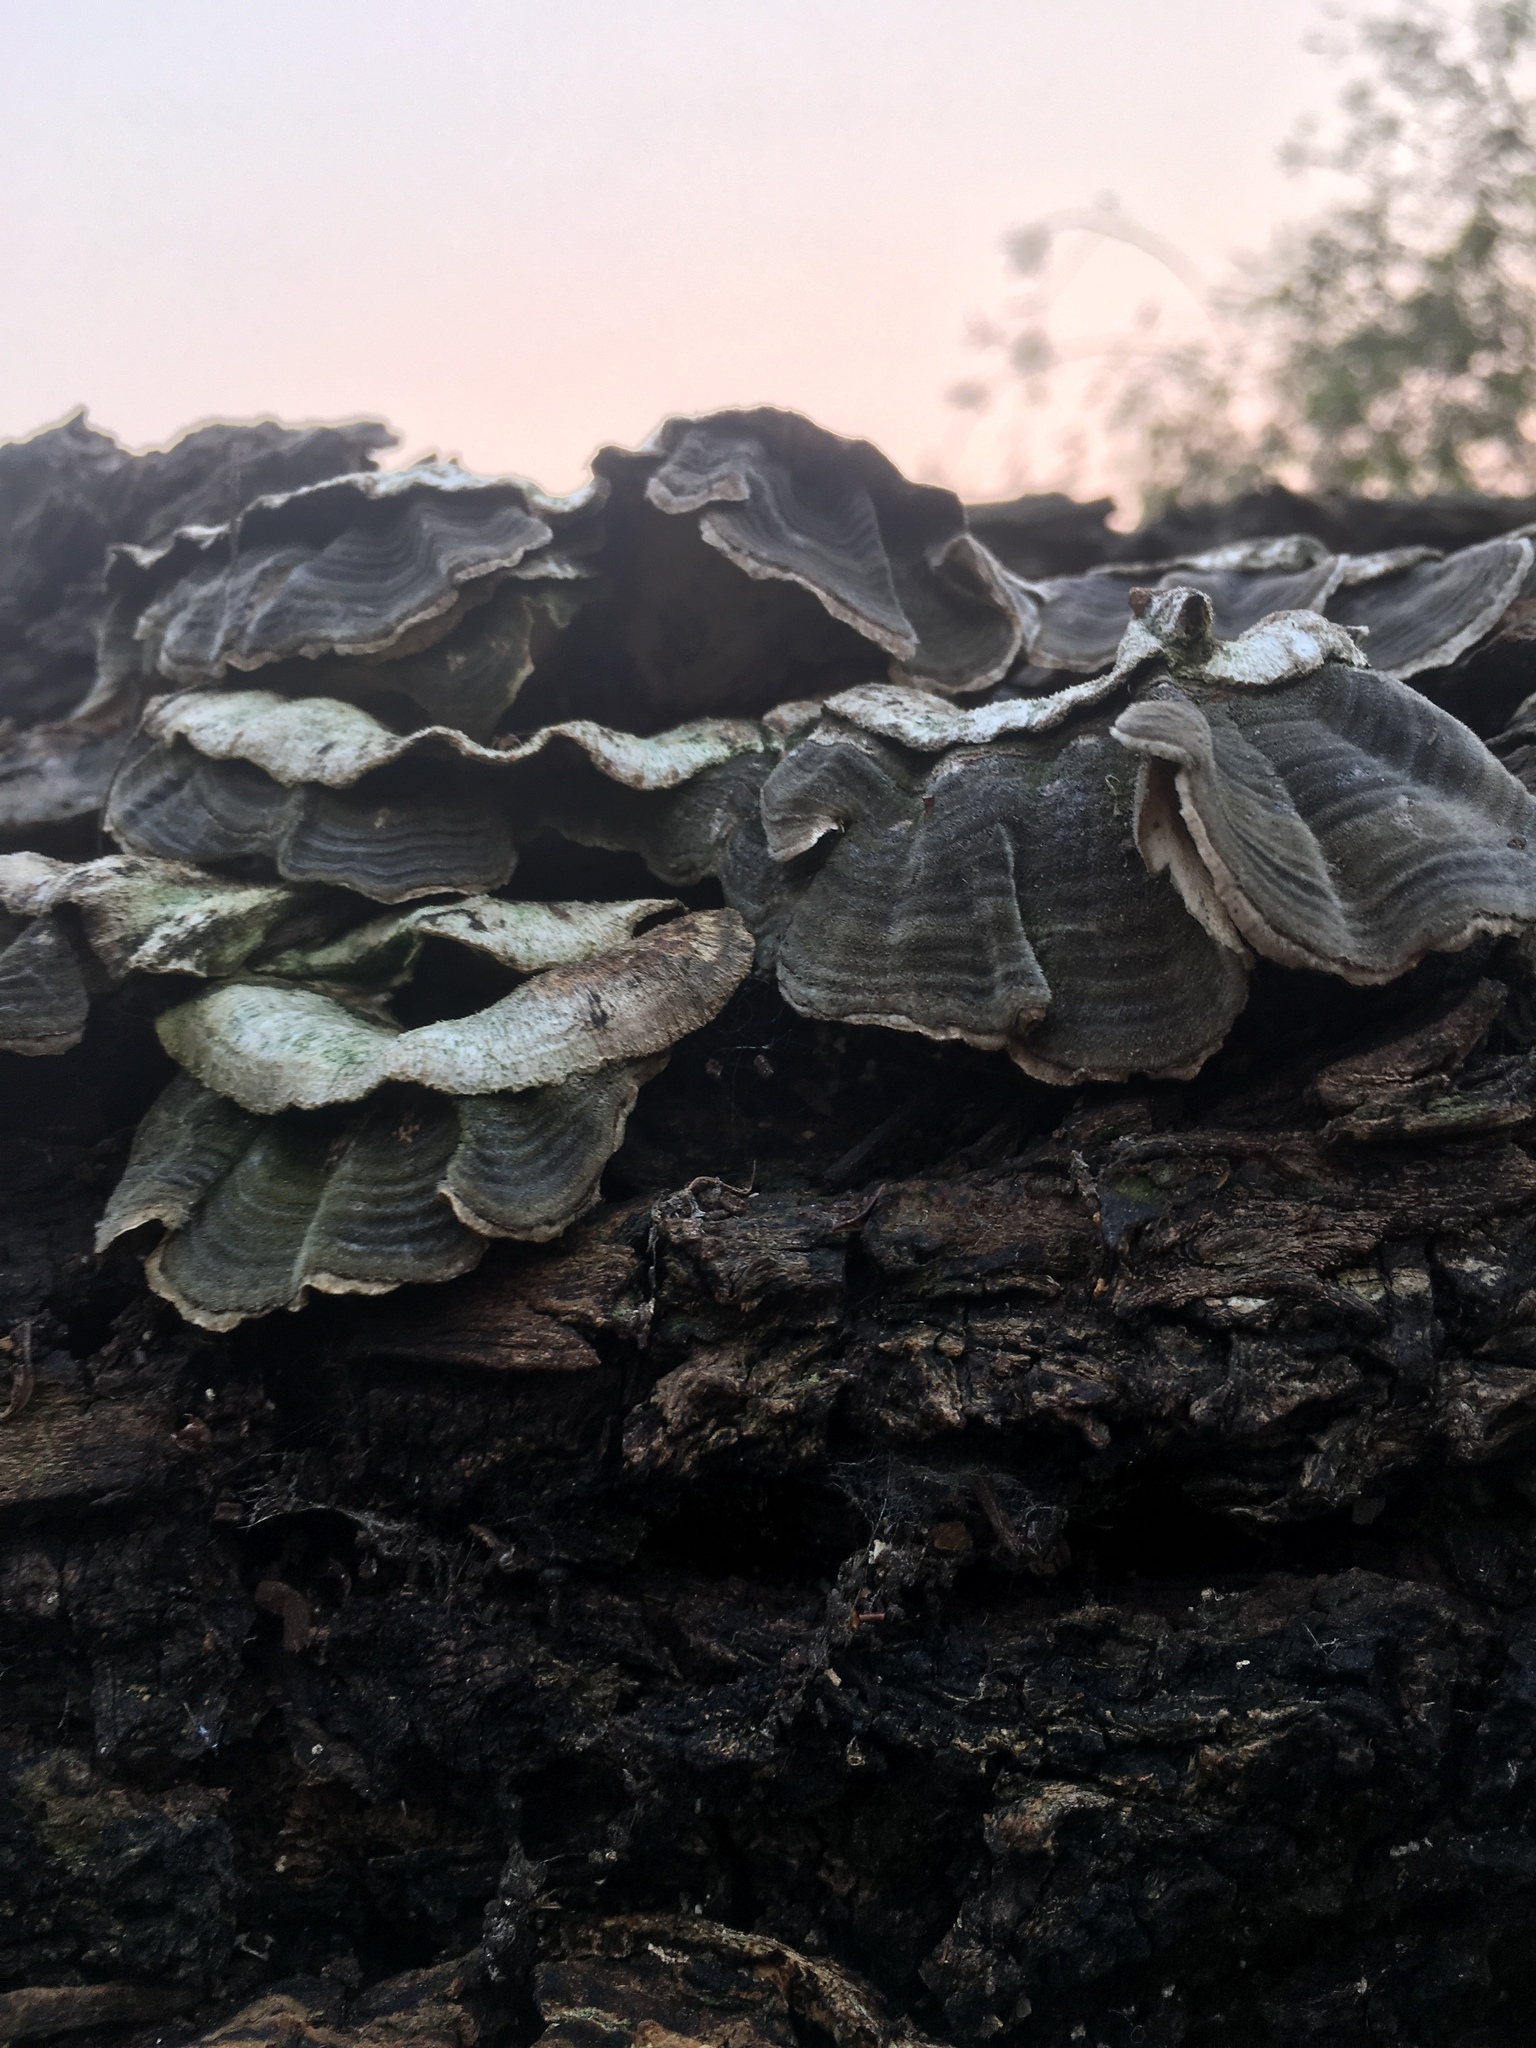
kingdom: Fungi
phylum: Basidiomycota
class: Agaricomycetes
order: Polyporales
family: Polyporaceae
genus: Trametes
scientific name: Trametes versicolor
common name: Turkeytail
